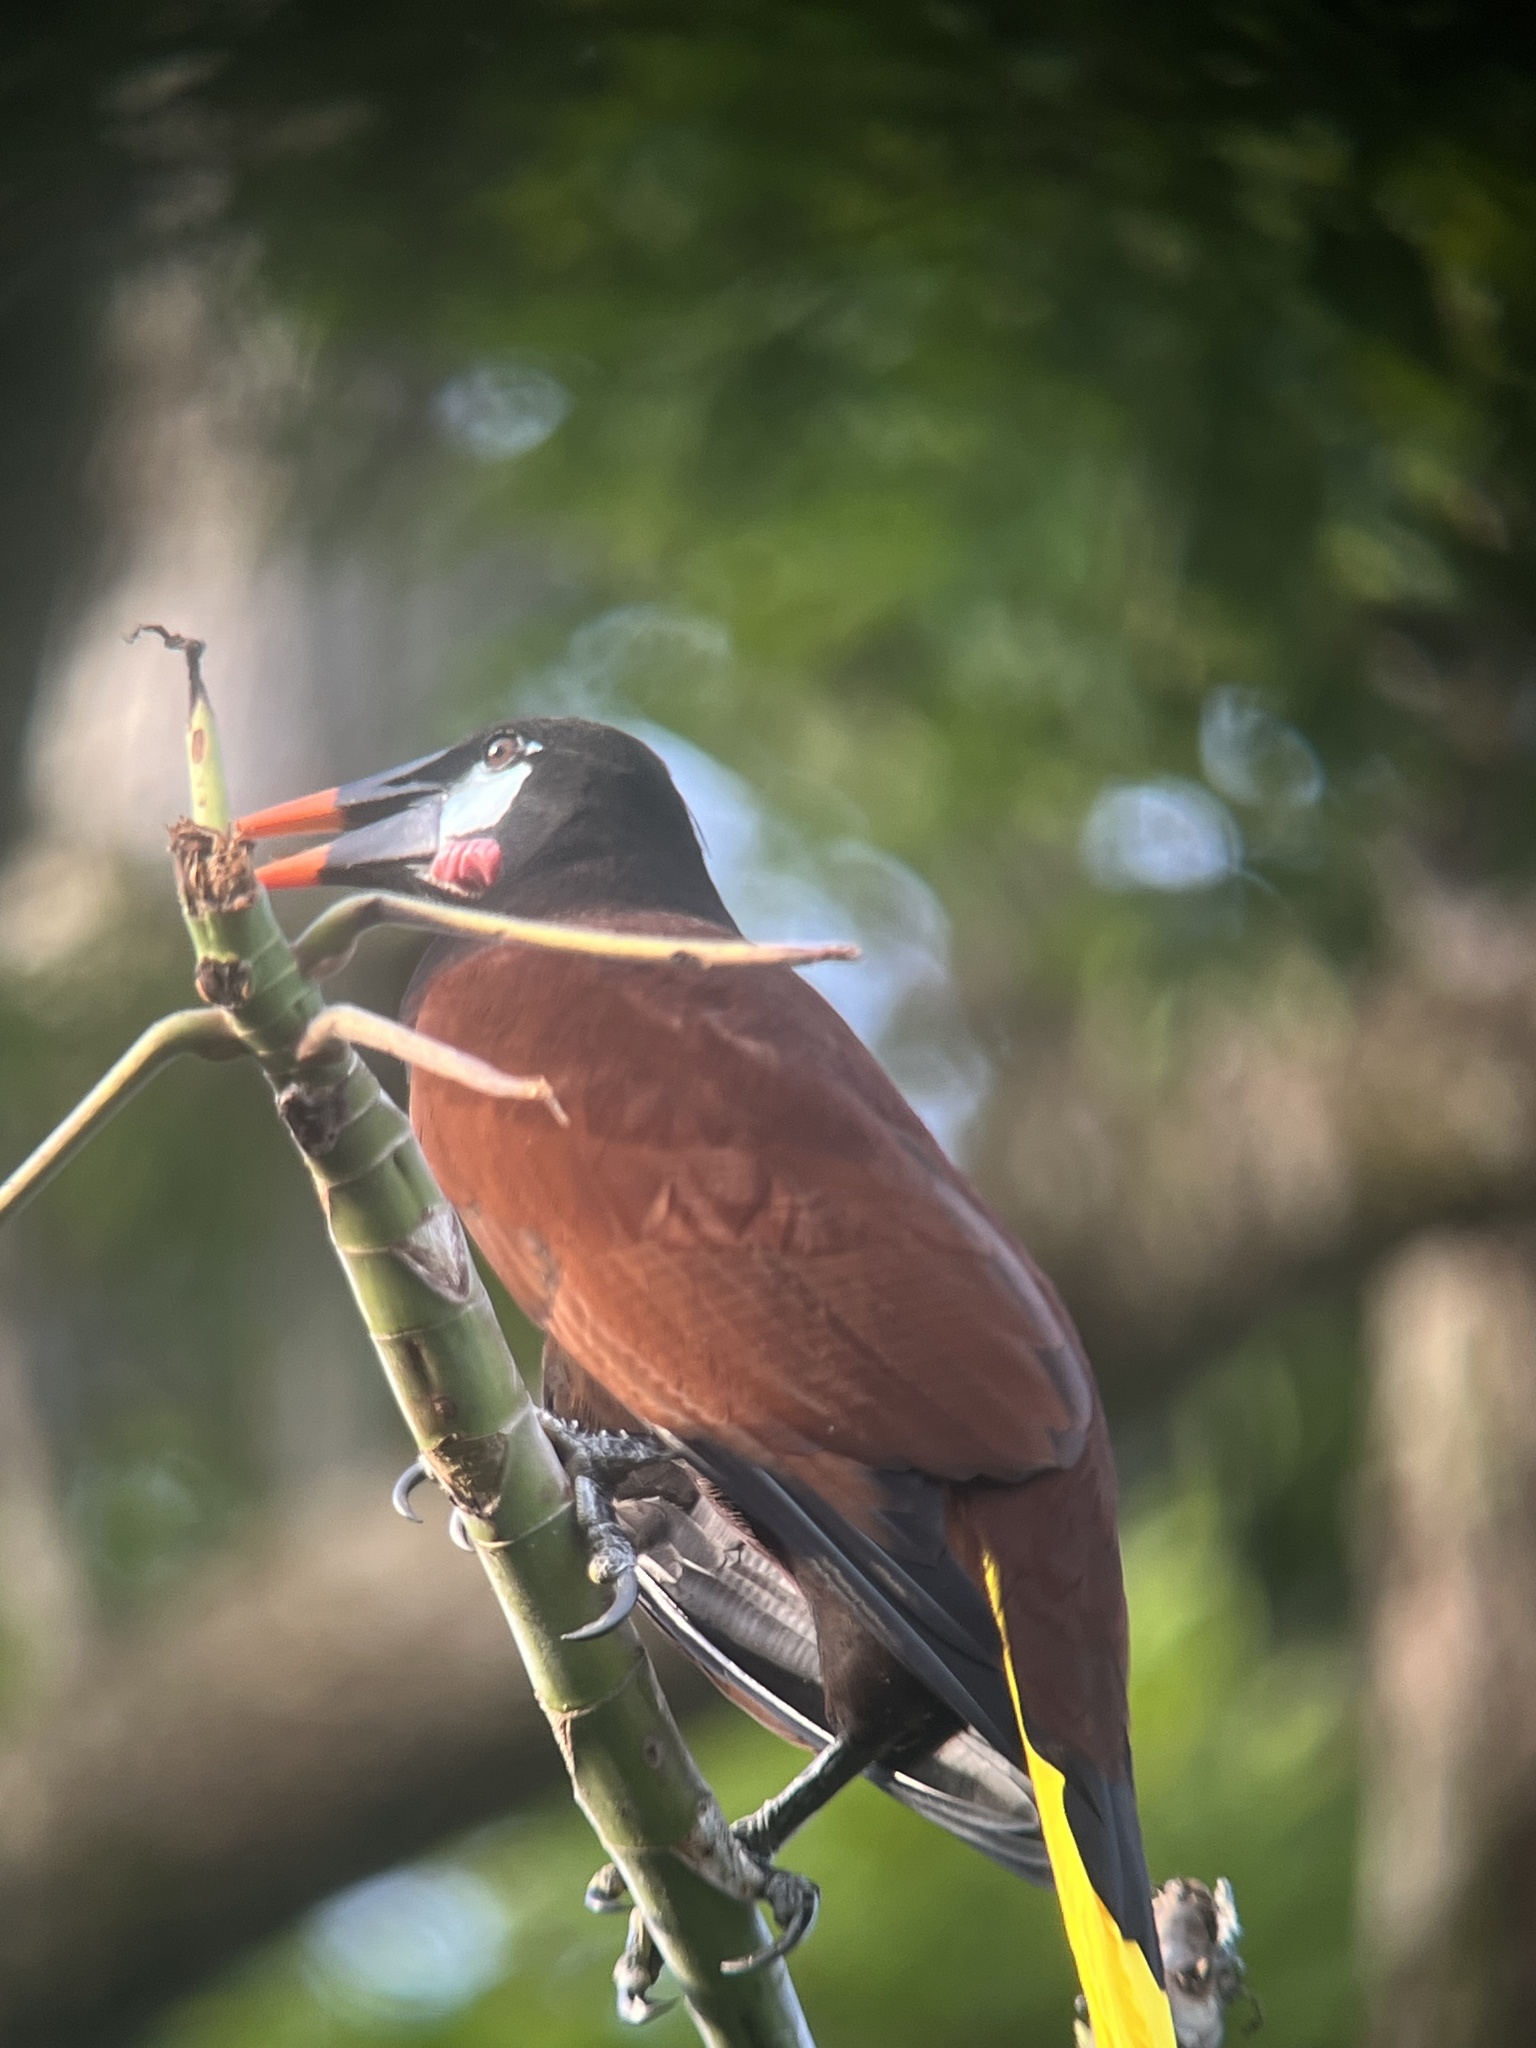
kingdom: Animalia
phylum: Chordata
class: Aves
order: Passeriformes
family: Icteridae
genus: Psarocolius
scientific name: Psarocolius montezuma
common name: Montezuma oropendola
